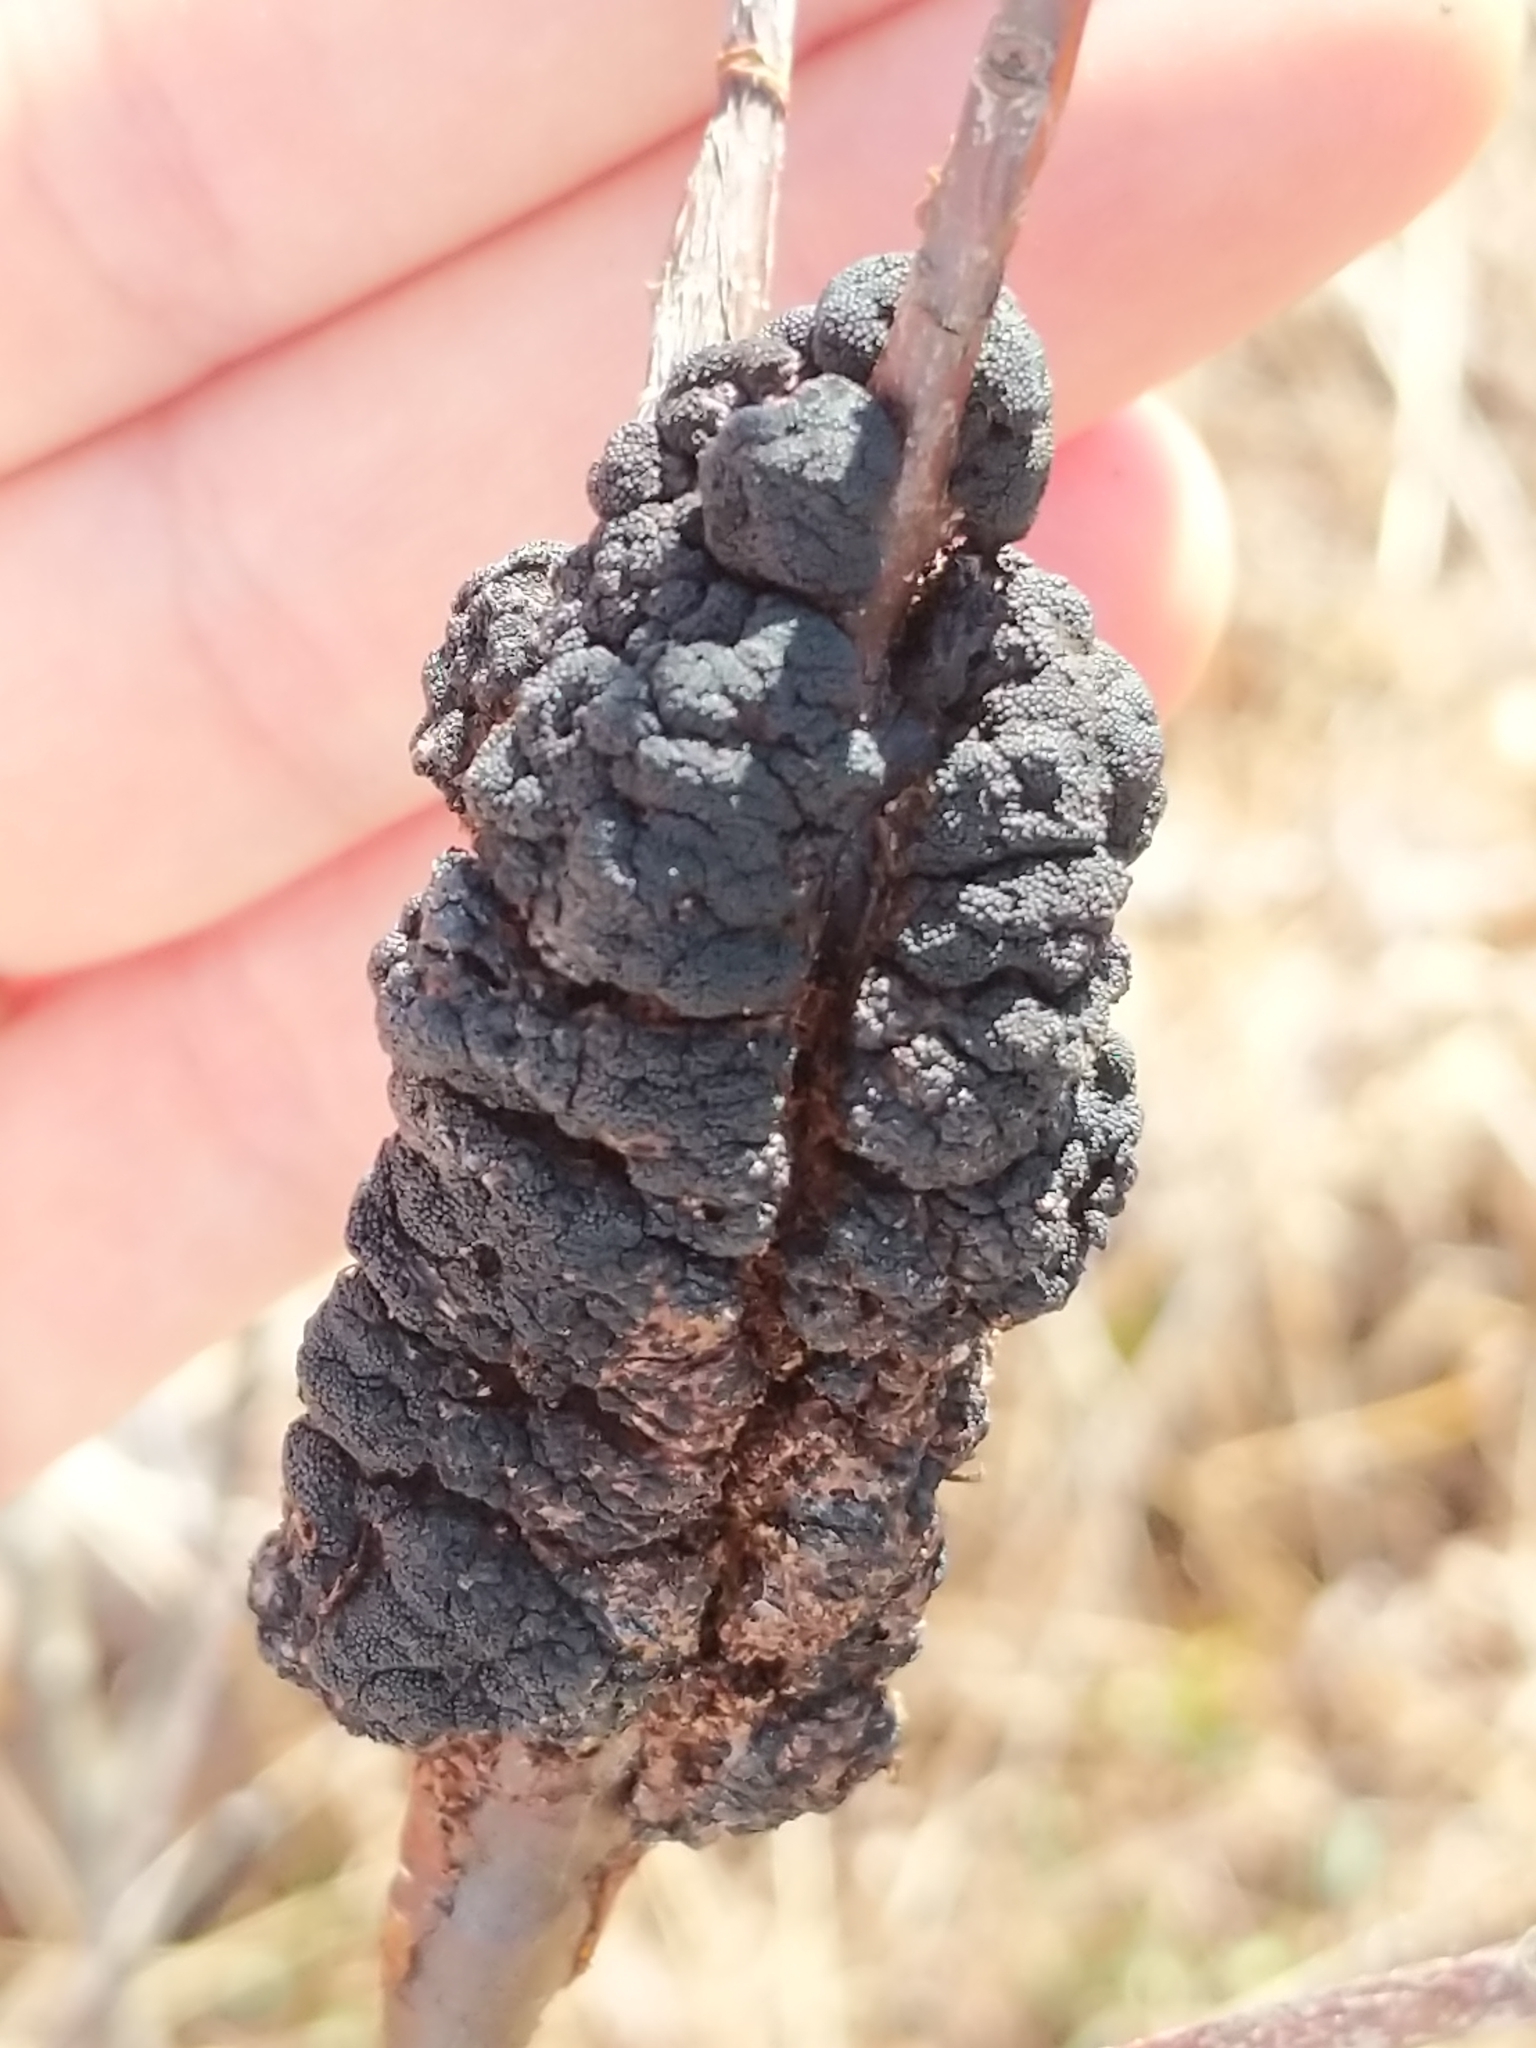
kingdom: Fungi
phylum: Ascomycota
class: Dothideomycetes
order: Venturiales
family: Venturiaceae
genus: Apiosporina
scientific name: Apiosporina morbosa
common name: Black knot
